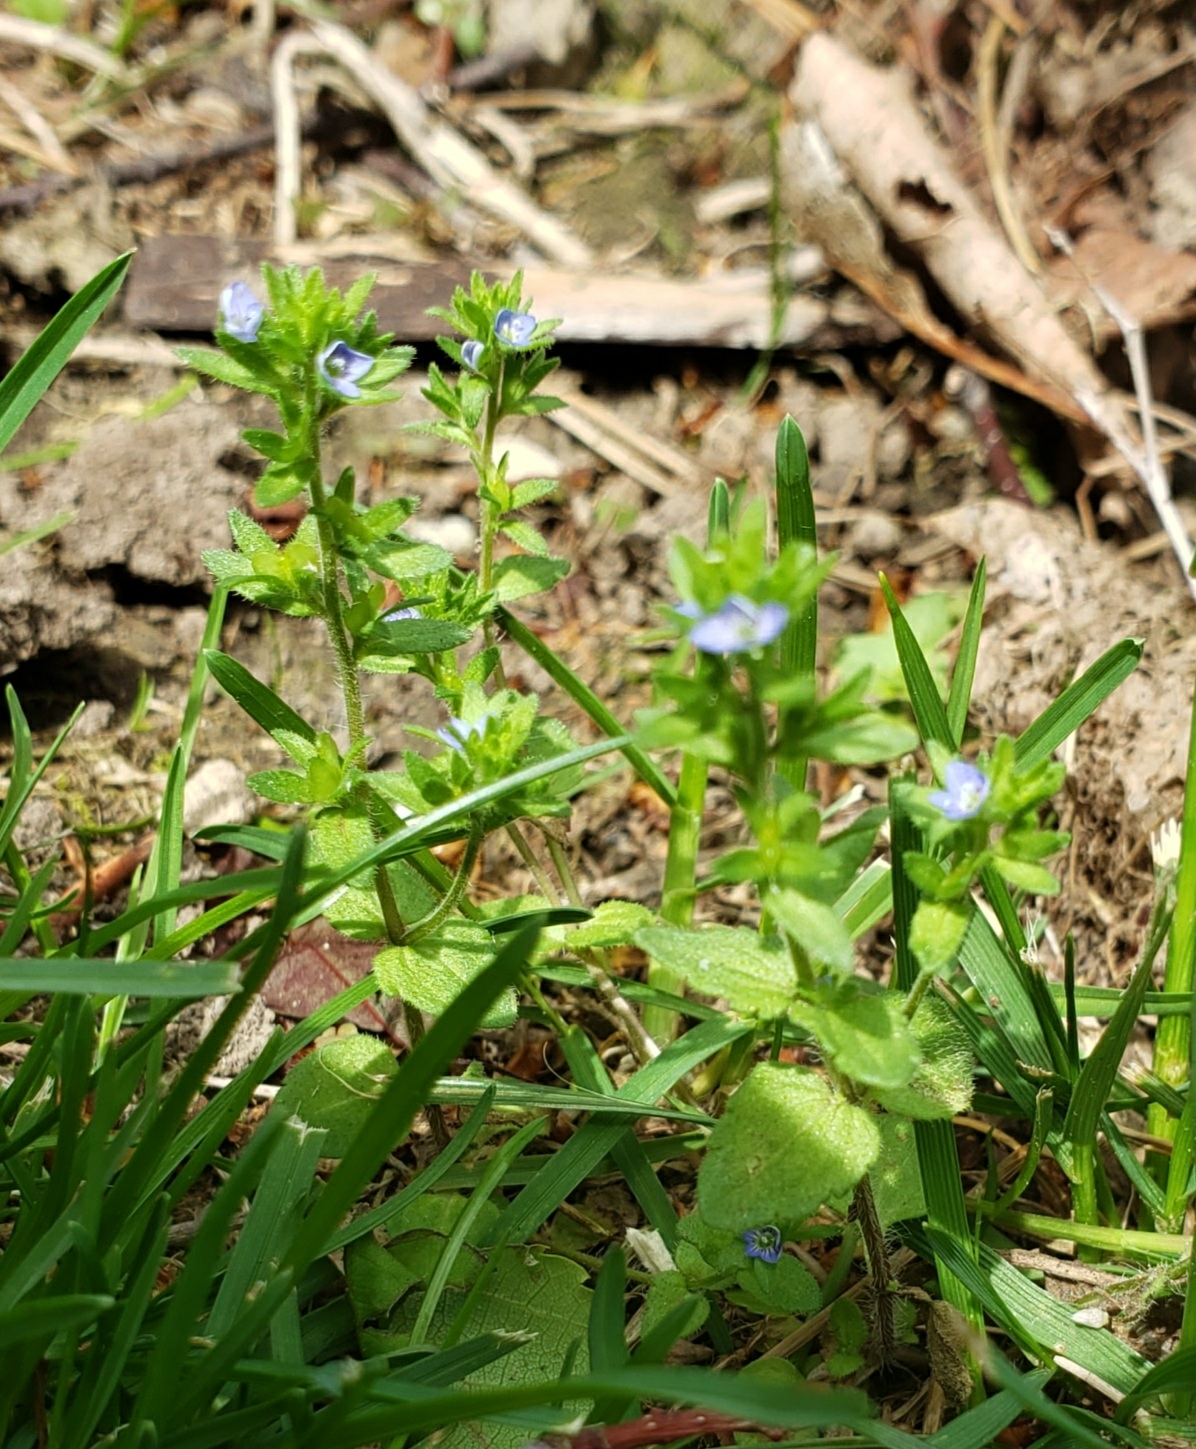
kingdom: Plantae
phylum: Tracheophyta
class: Magnoliopsida
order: Lamiales
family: Plantaginaceae
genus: Veronica
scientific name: Veronica arvensis
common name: Corn speedwell
